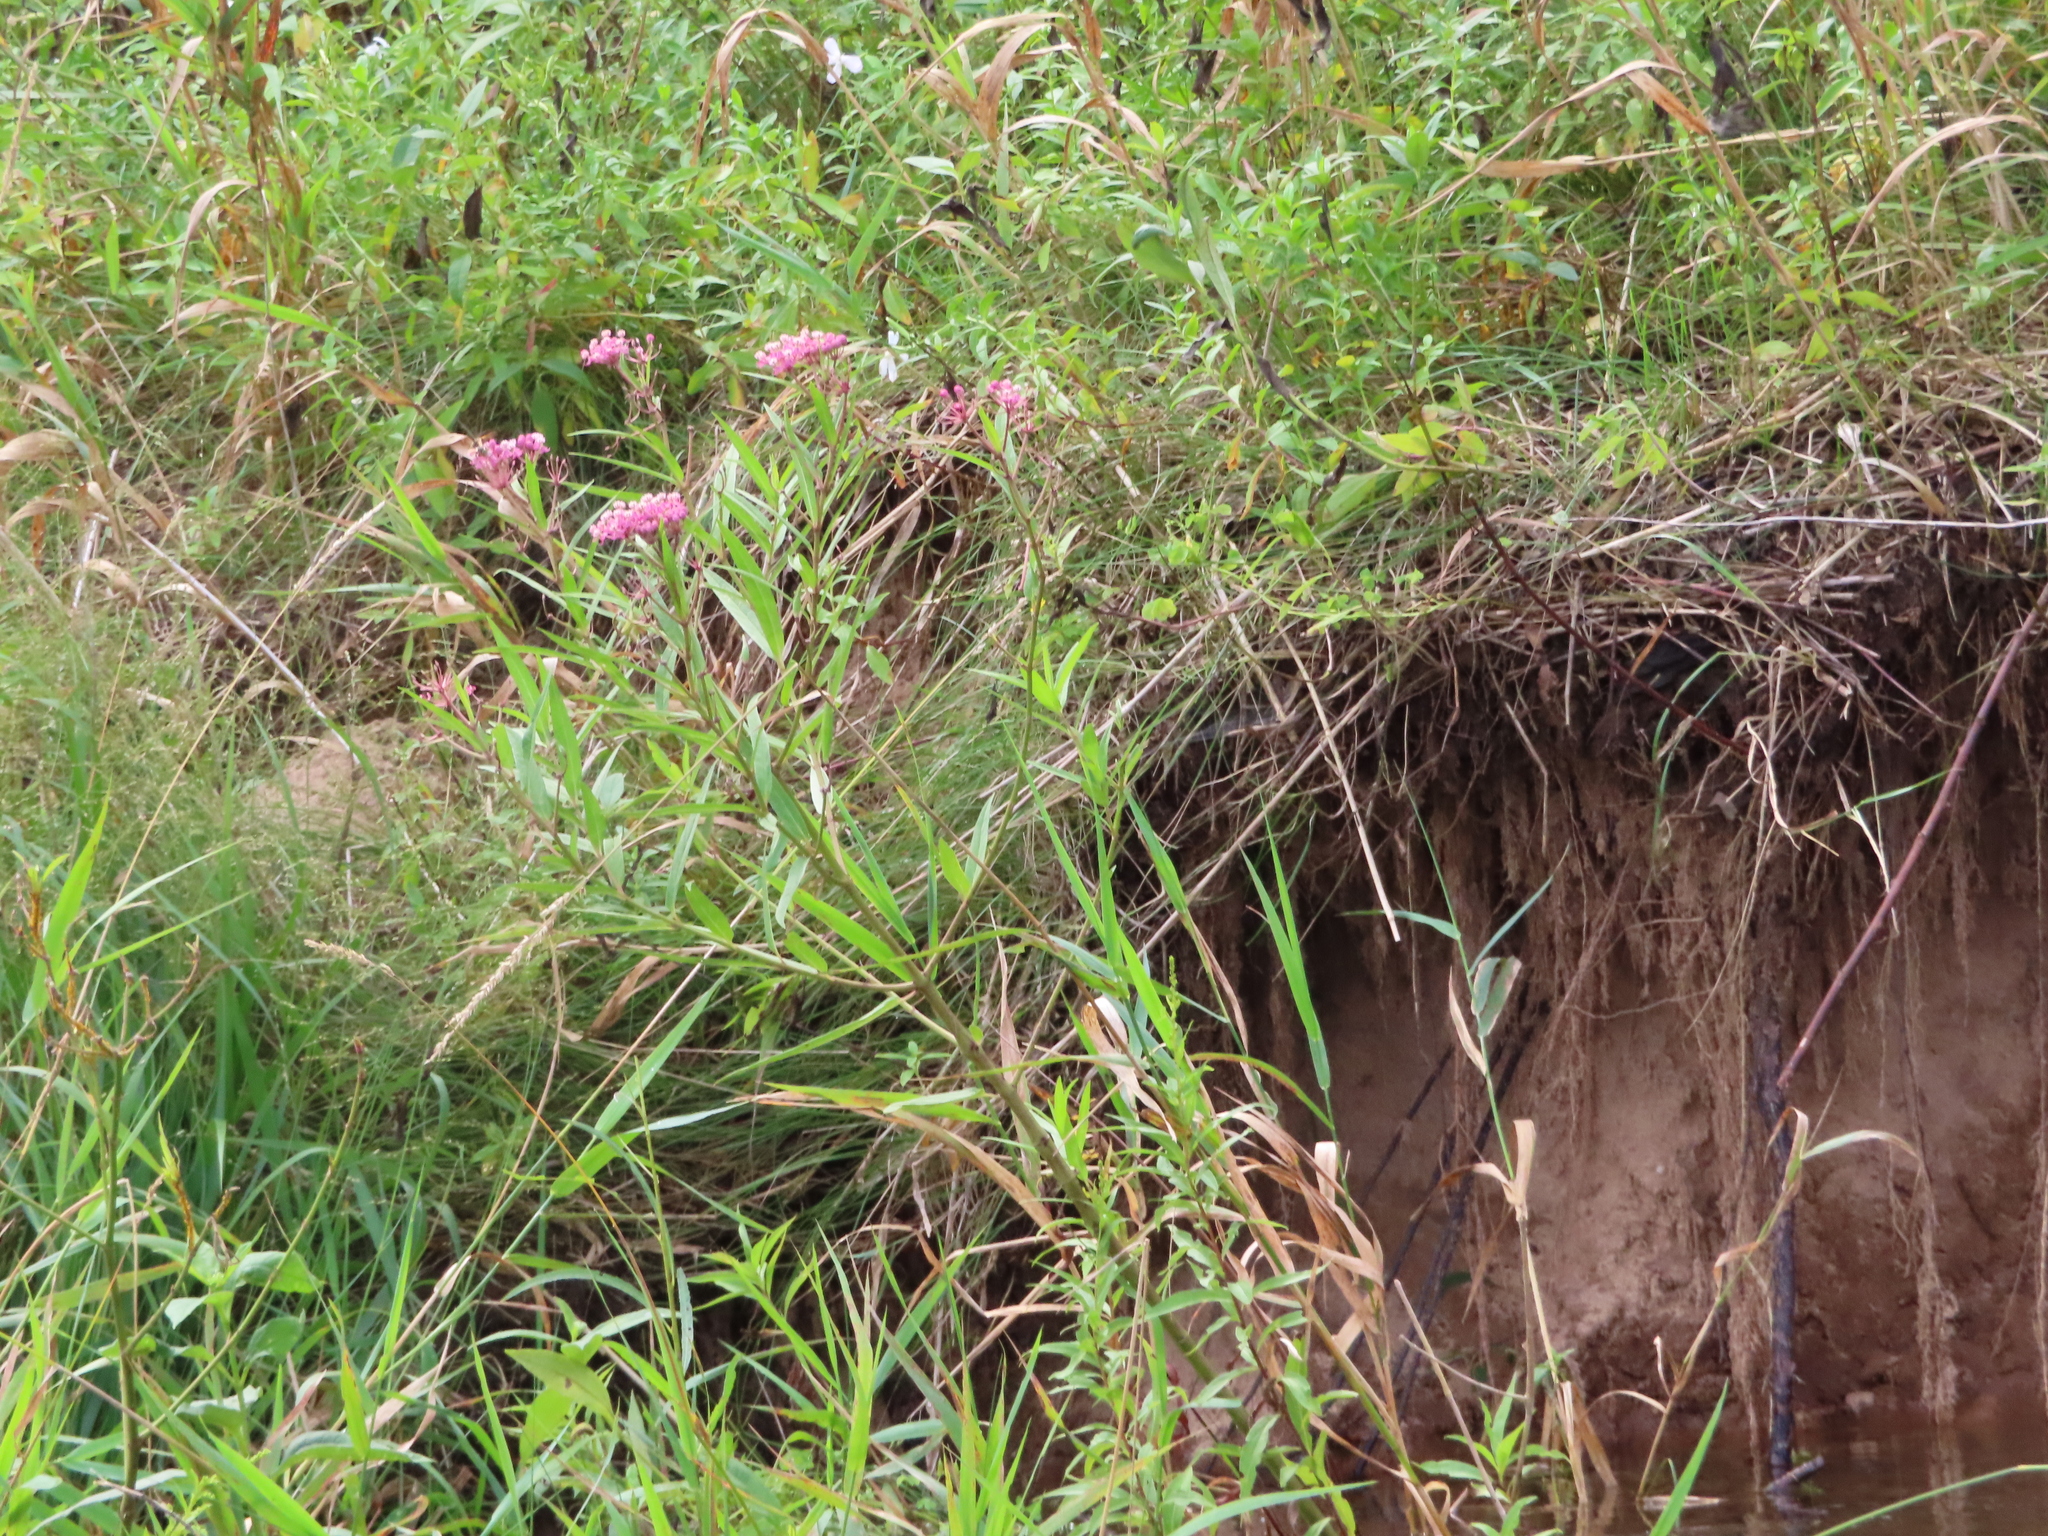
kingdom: Plantae
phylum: Tracheophyta
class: Magnoliopsida
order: Gentianales
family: Apocynaceae
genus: Asclepias
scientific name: Asclepias incarnata
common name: Swamp milkweed
